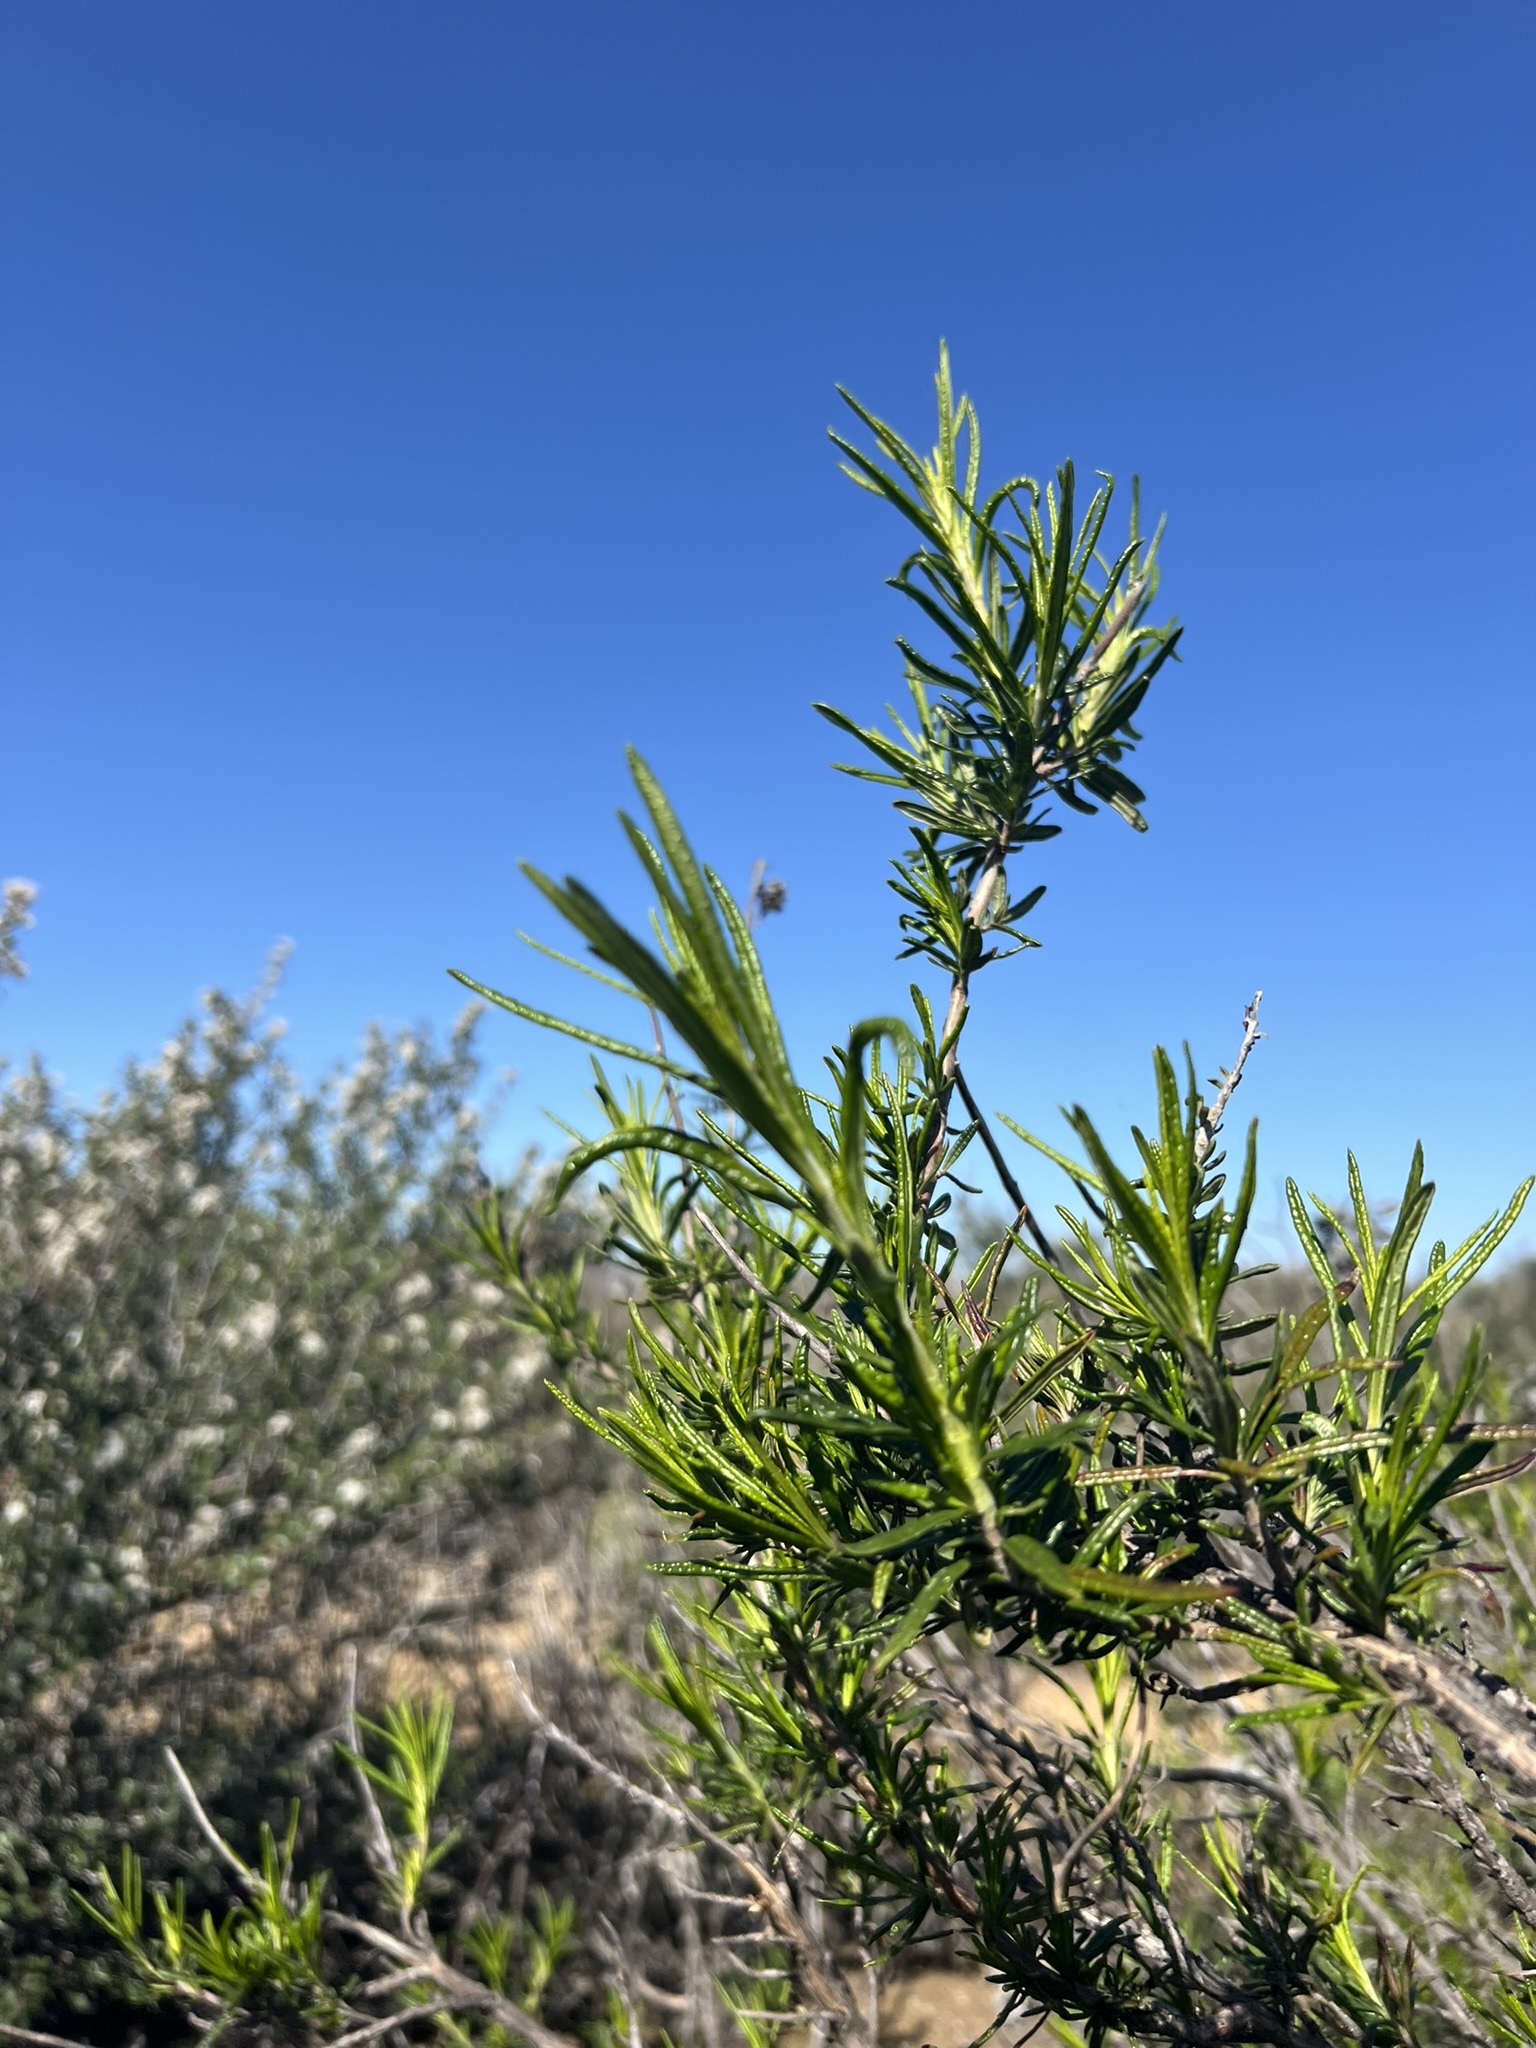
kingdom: Plantae
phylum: Tracheophyta
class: Magnoliopsida
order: Lamiales
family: Lamiaceae
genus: Trichostema
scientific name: Trichostema lanatum
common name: Woolly bluecurls
